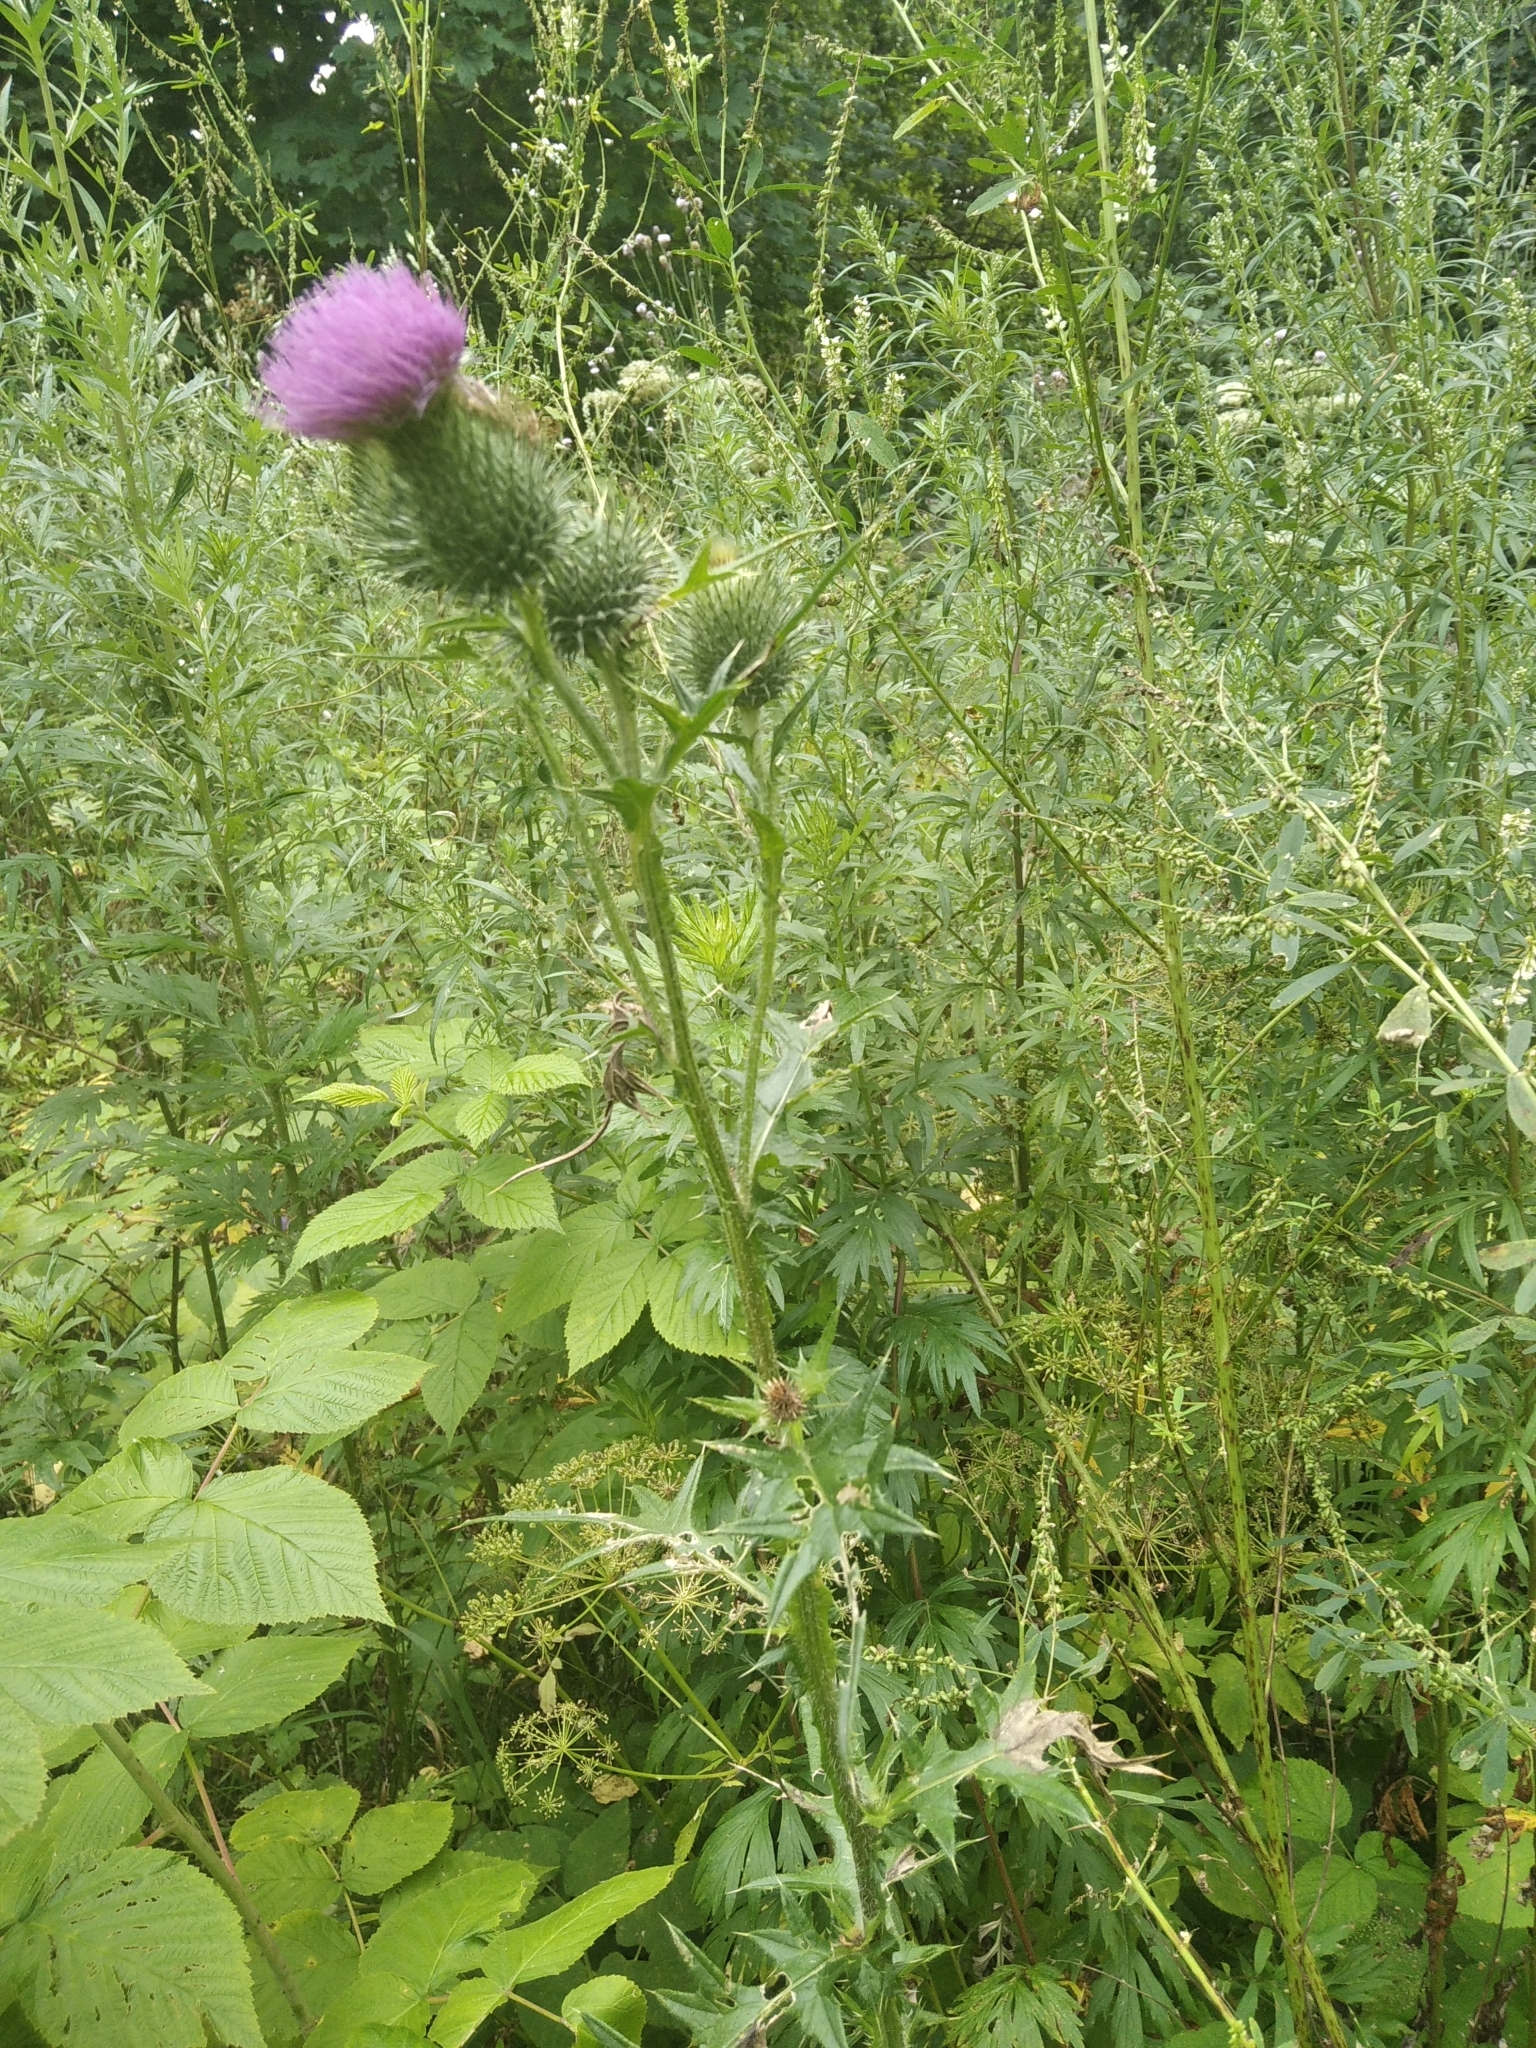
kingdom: Plantae
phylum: Tracheophyta
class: Magnoliopsida
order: Asterales
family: Asteraceae
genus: Cirsium
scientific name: Cirsium vulgare
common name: Bull thistle
